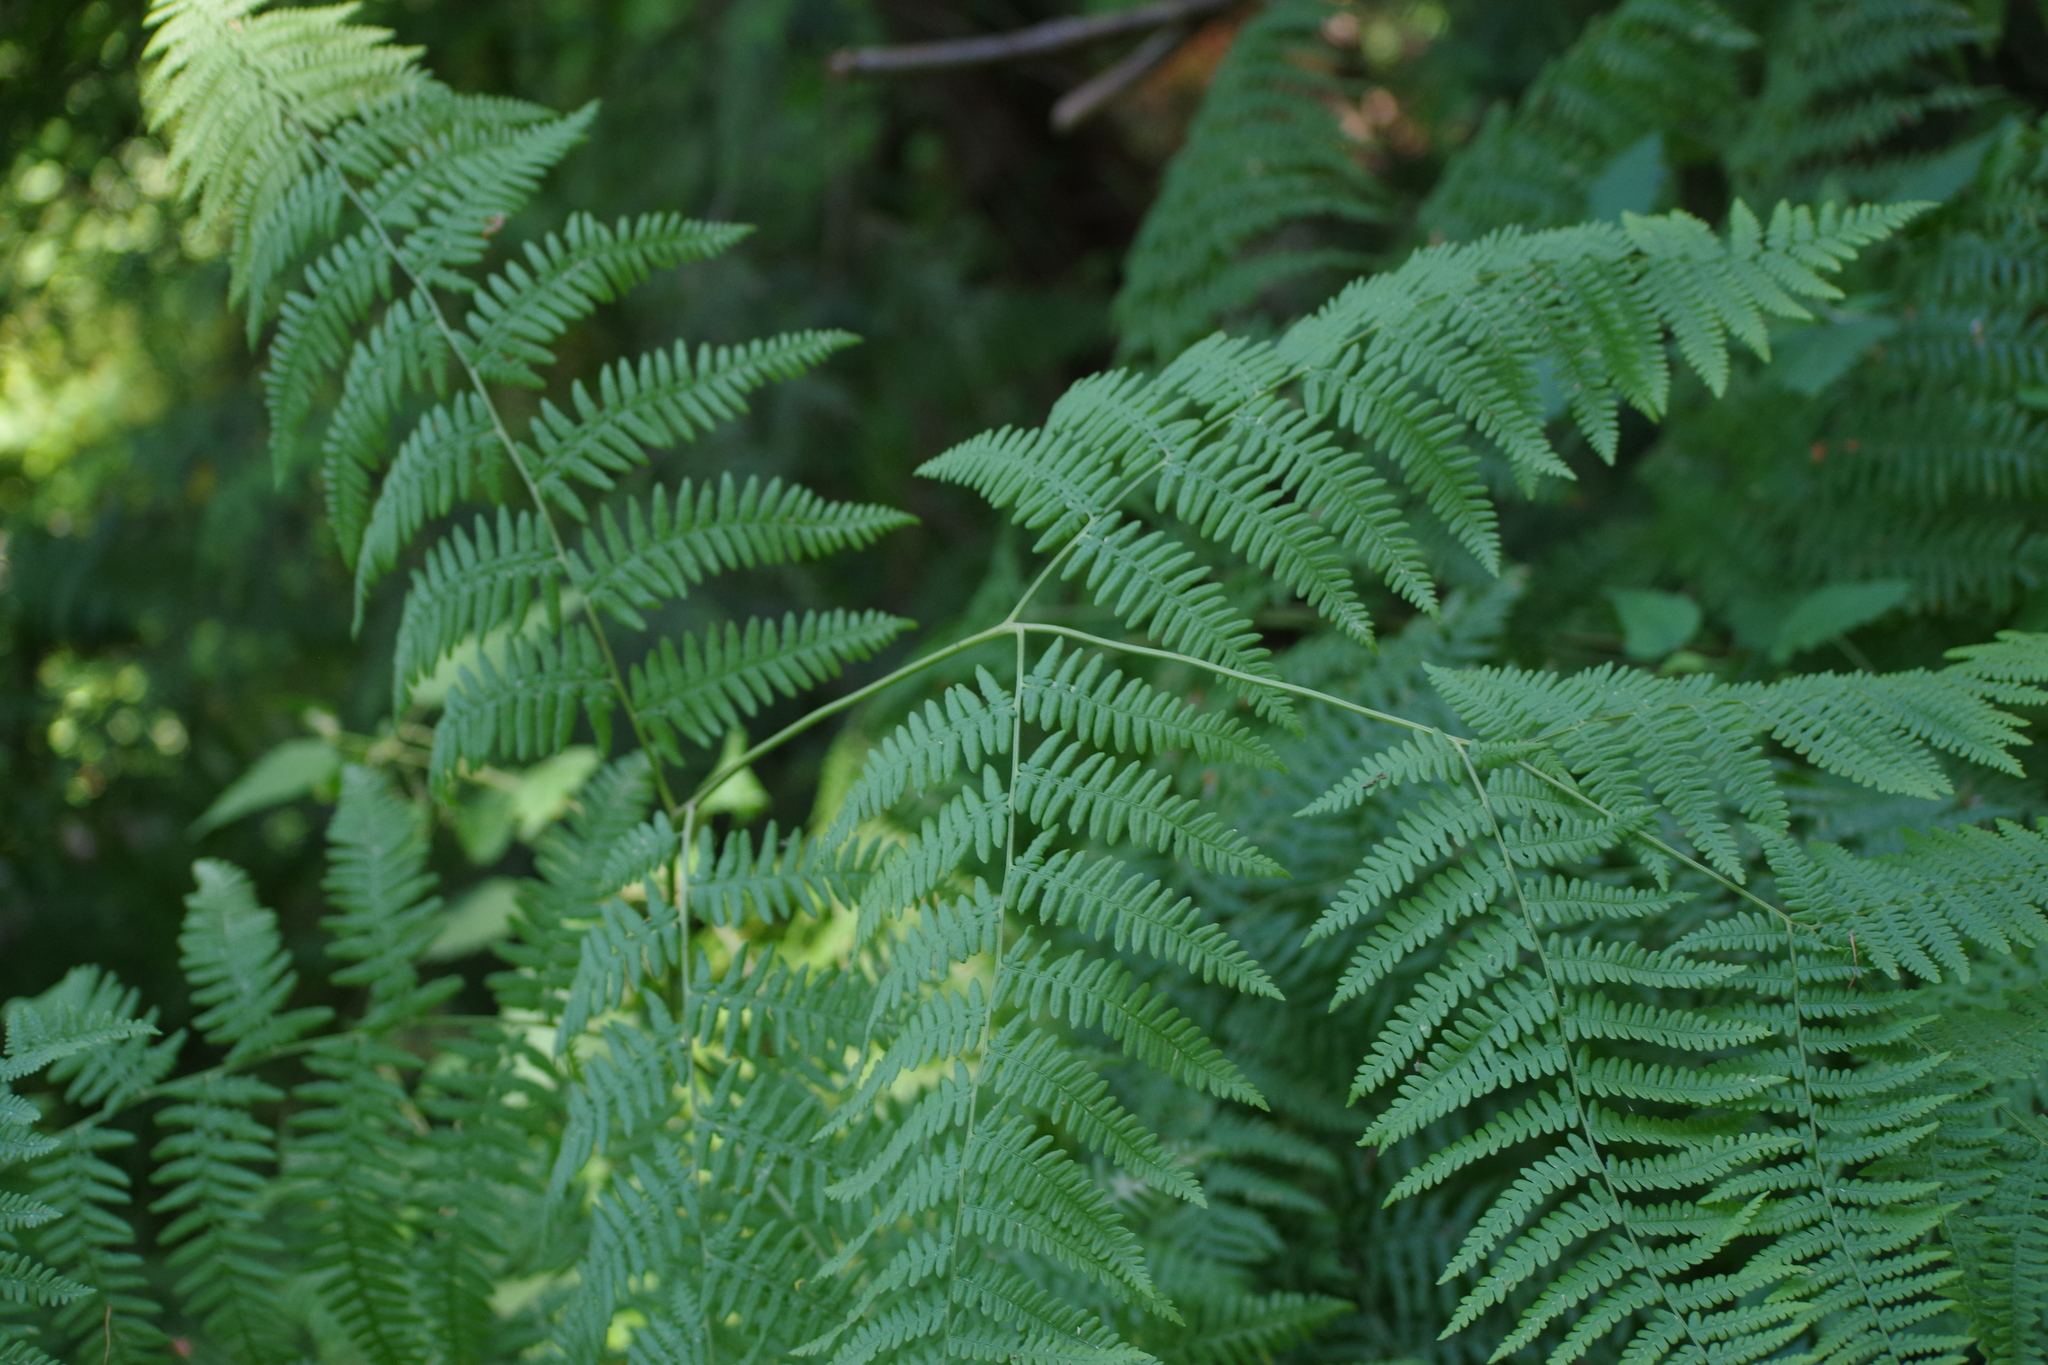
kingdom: Plantae
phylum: Tracheophyta
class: Polypodiopsida
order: Polypodiales
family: Dennstaedtiaceae
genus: Pteridium
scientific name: Pteridium aquilinum
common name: Bracken
